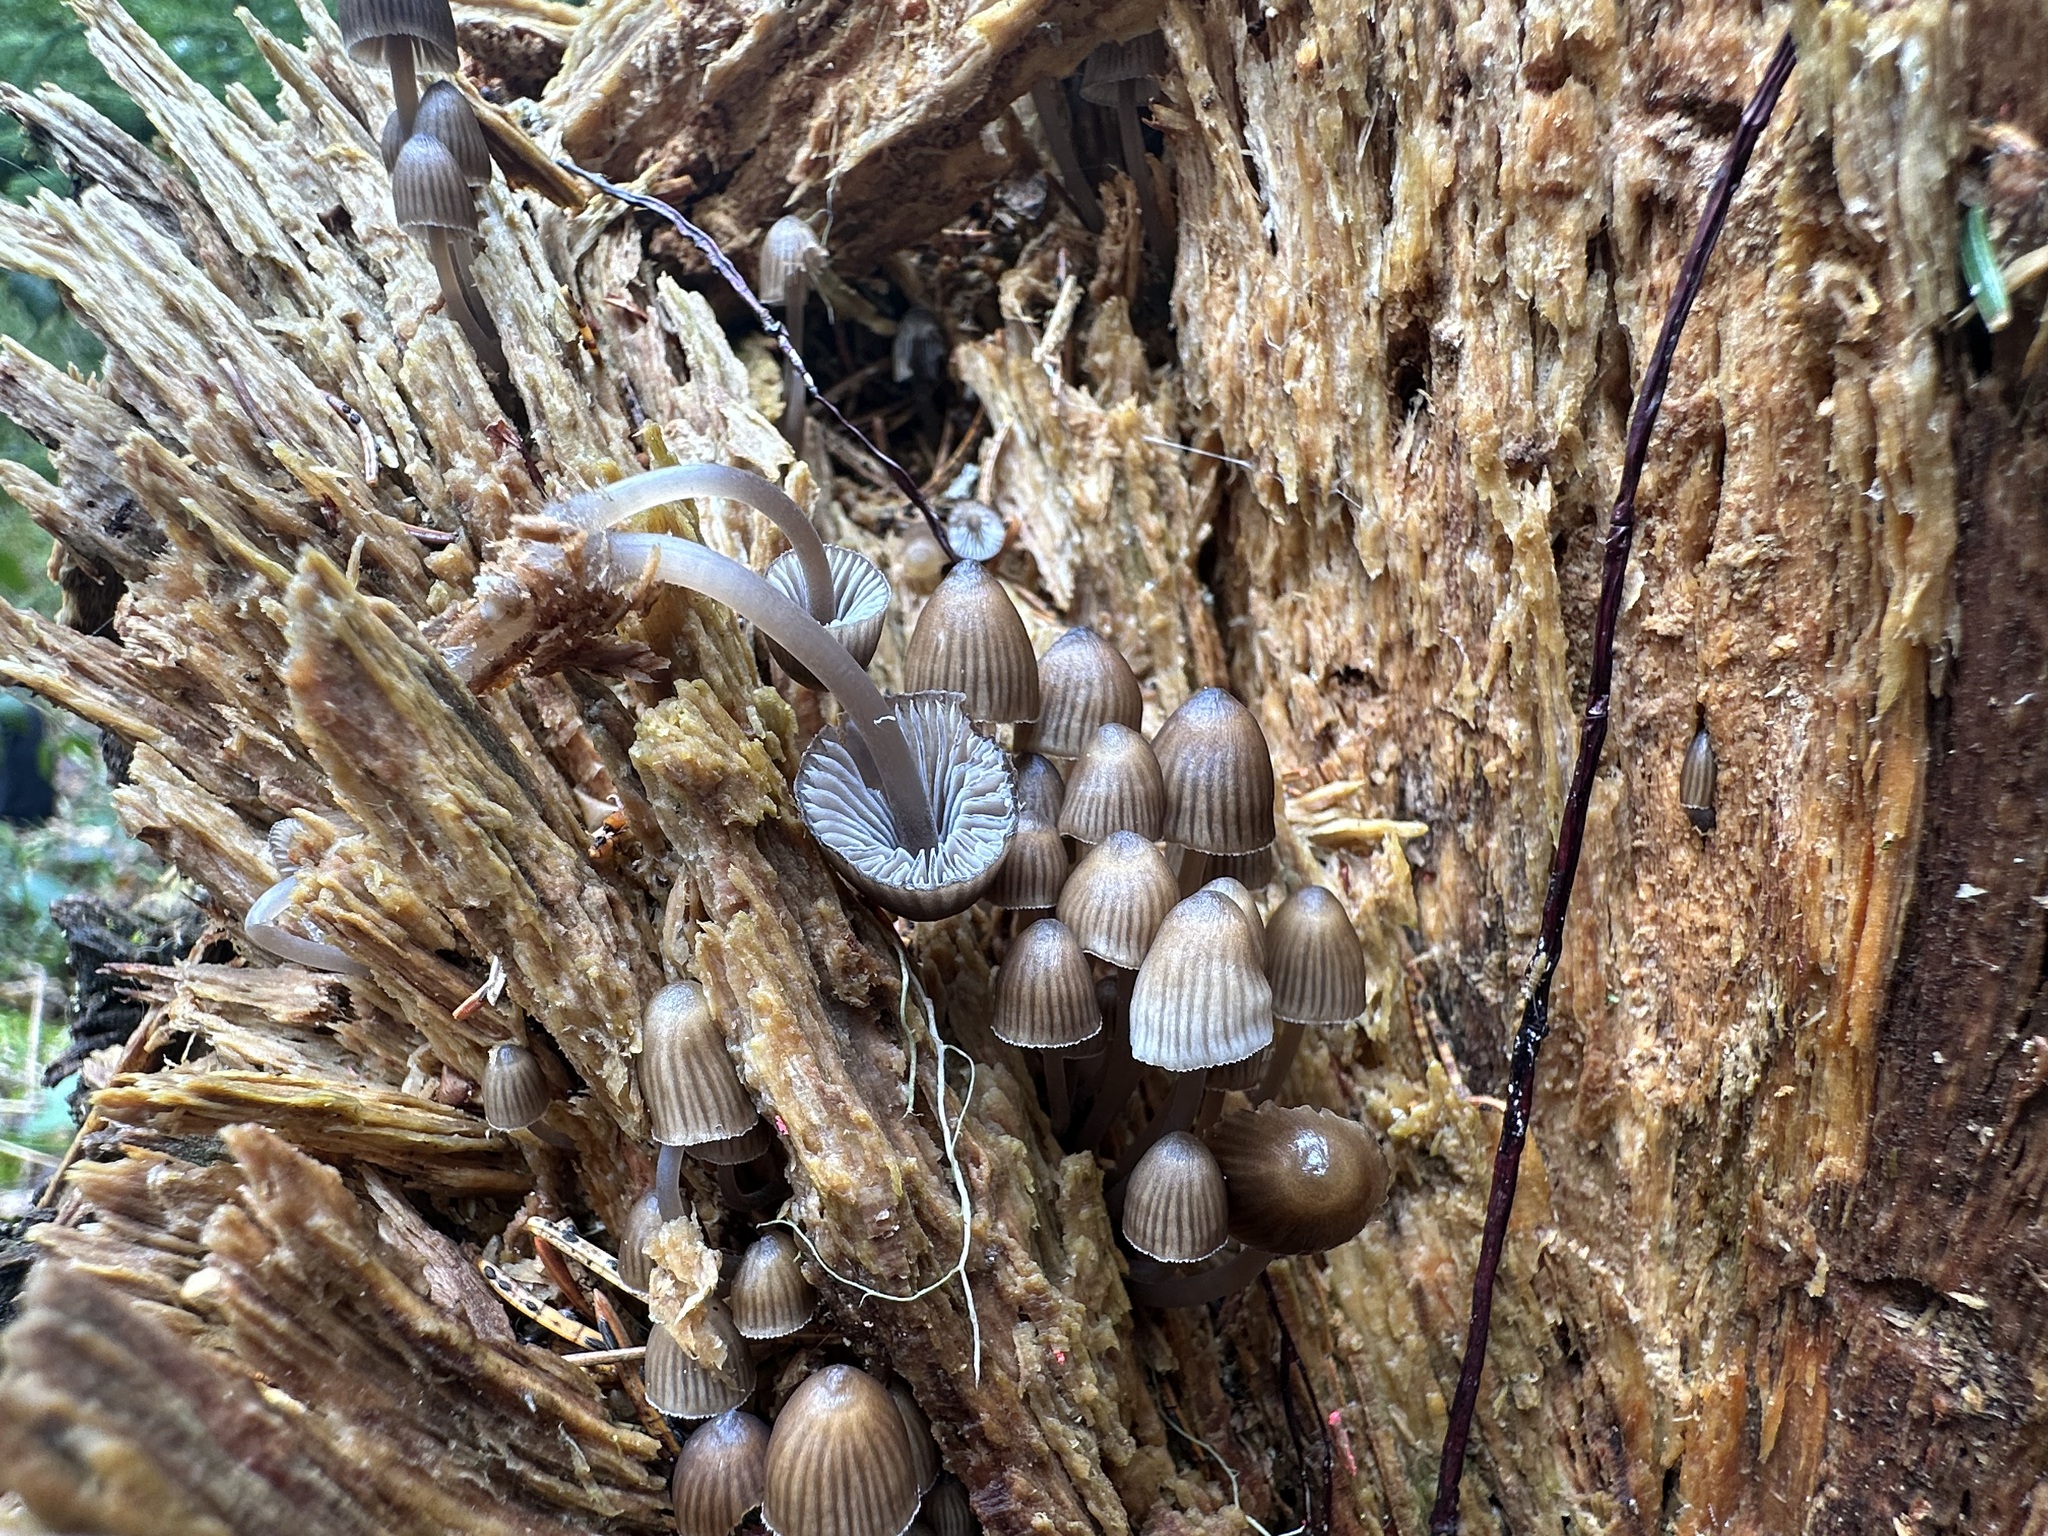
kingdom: Fungi
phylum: Basidiomycota
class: Agaricomycetes
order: Agaricales
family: Mycenaceae
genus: Mycena
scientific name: Mycena stipata
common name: Clustered pine bonnet
